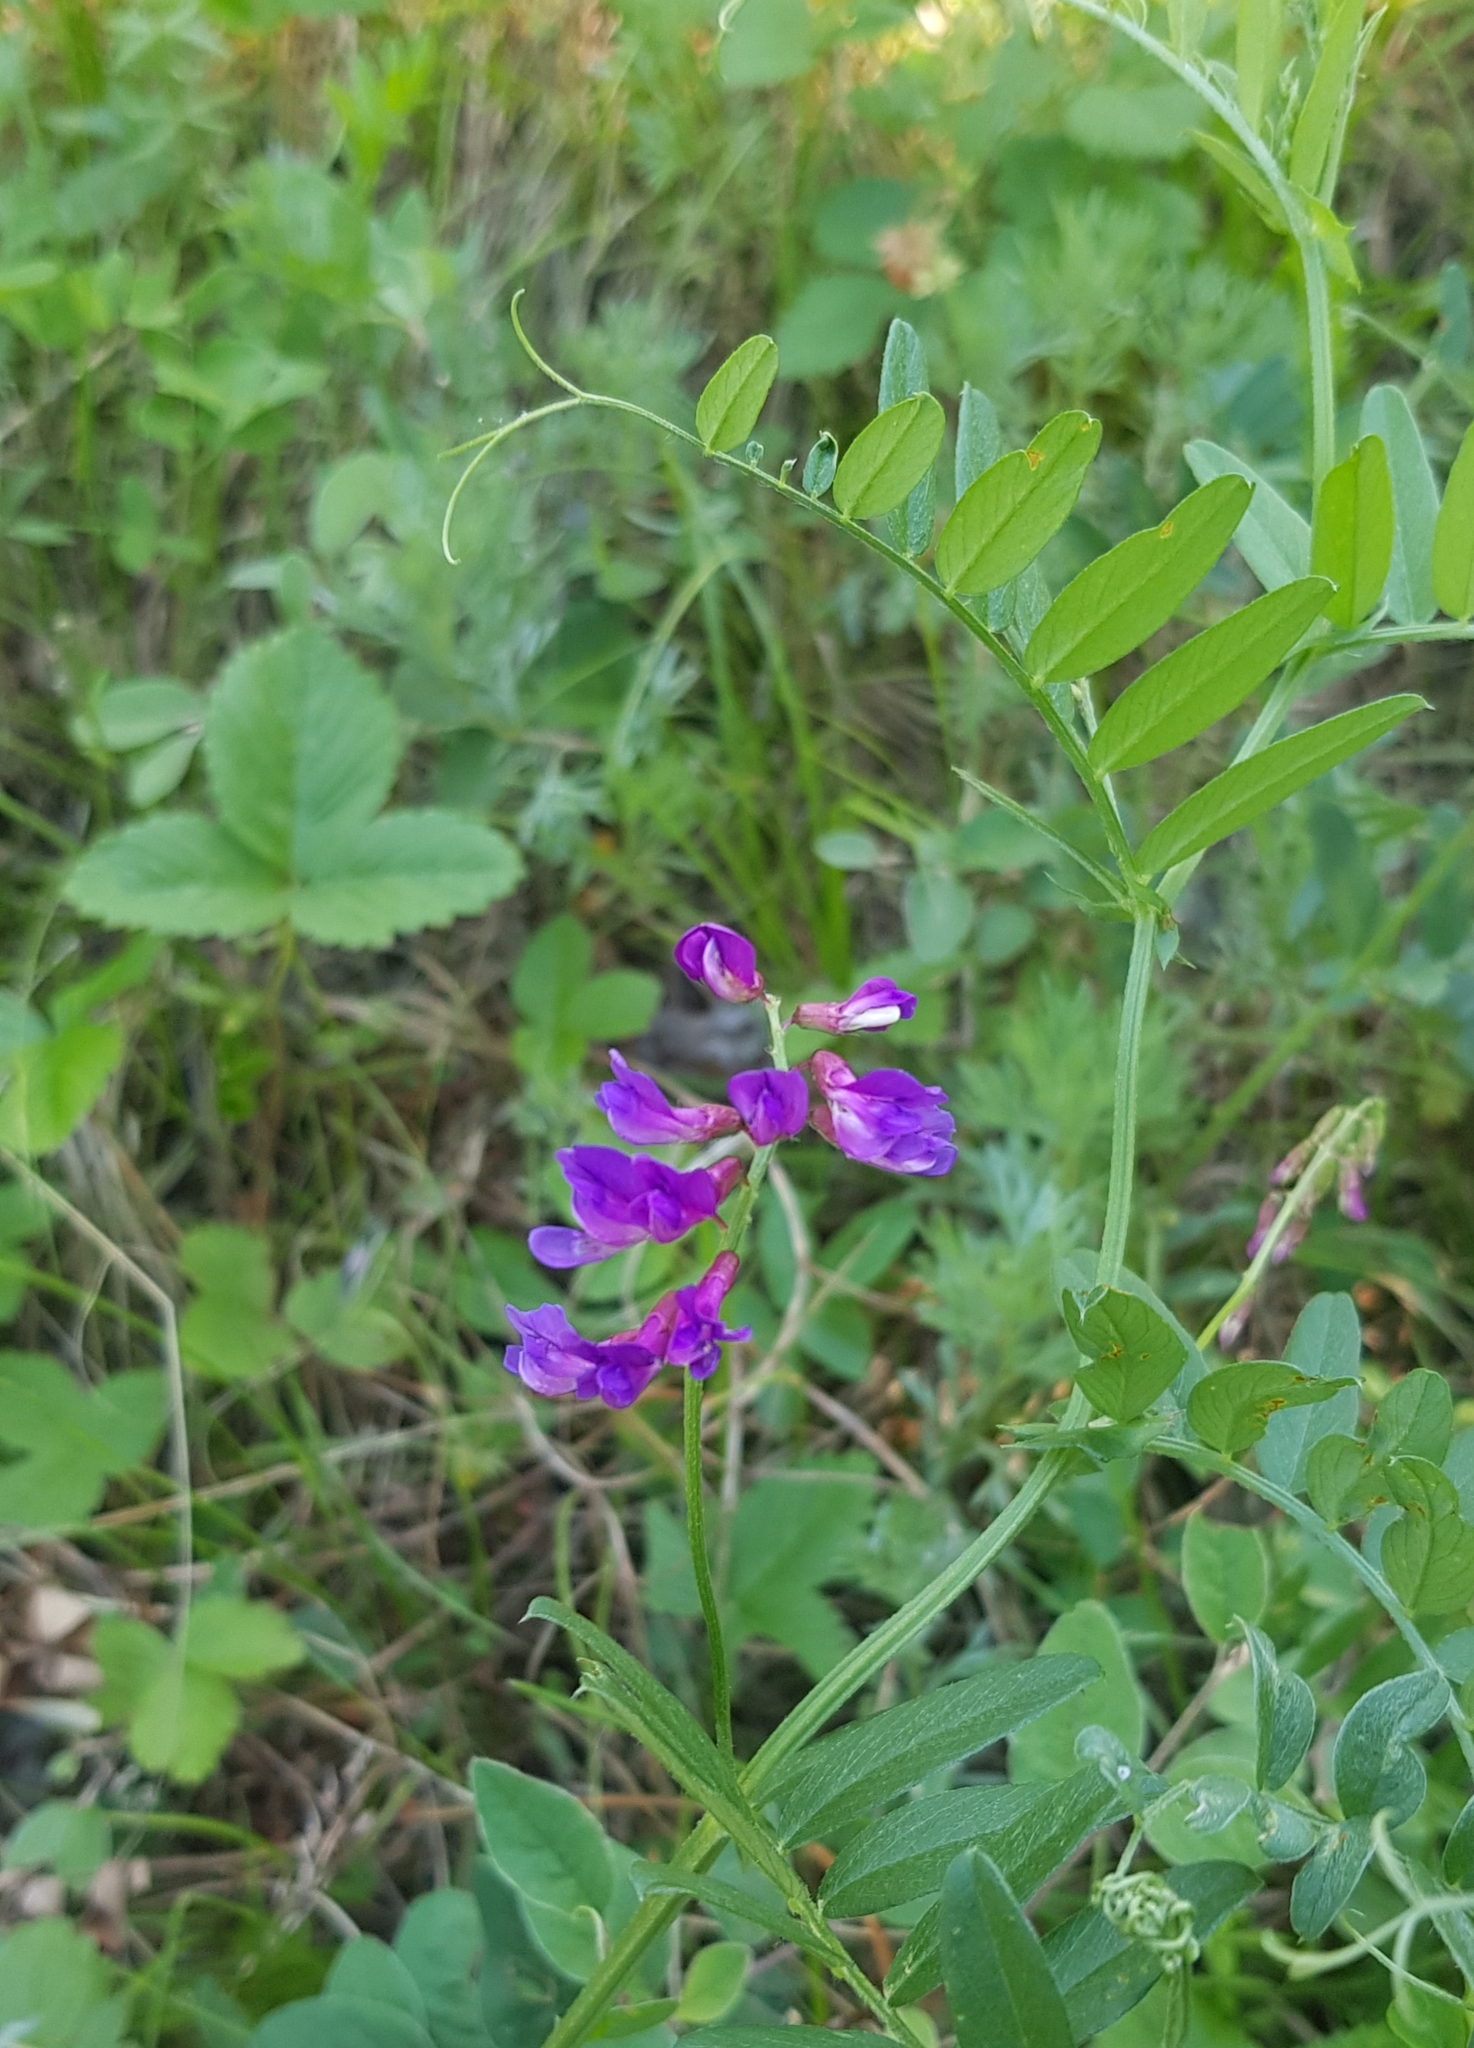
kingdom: Plantae
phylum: Tracheophyta
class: Magnoliopsida
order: Fabales
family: Fabaceae
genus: Vicia
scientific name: Vicia amoena
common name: Cheder ebs
